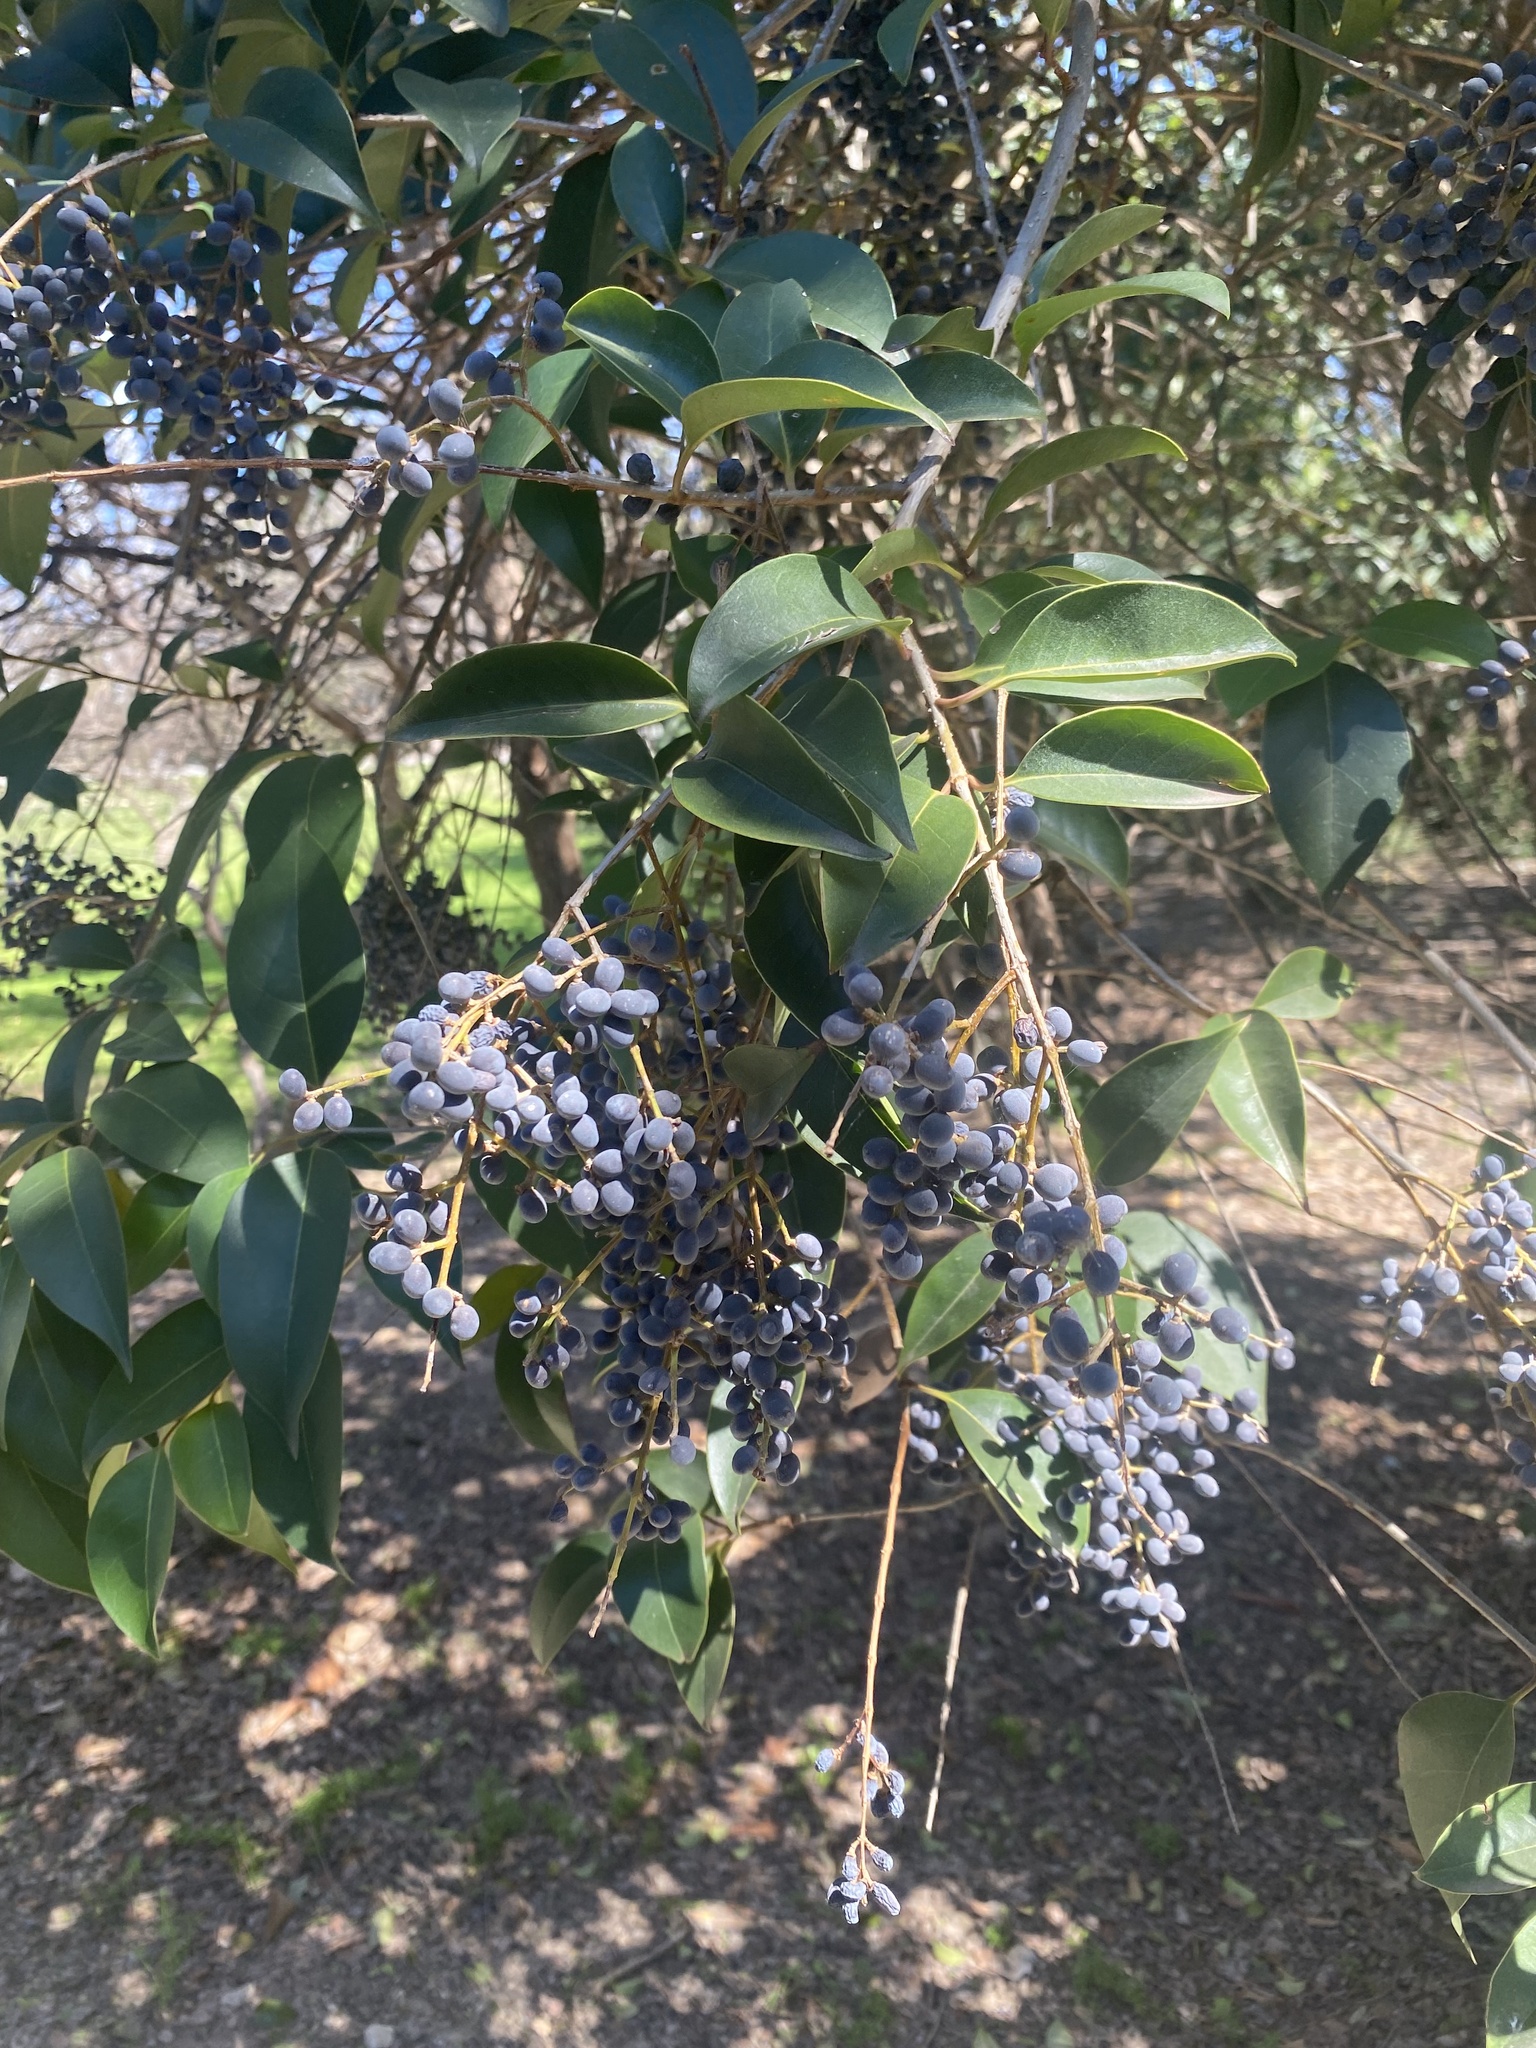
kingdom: Plantae
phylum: Tracheophyta
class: Magnoliopsida
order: Lamiales
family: Oleaceae
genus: Ligustrum
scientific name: Ligustrum lucidum
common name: Glossy privet
